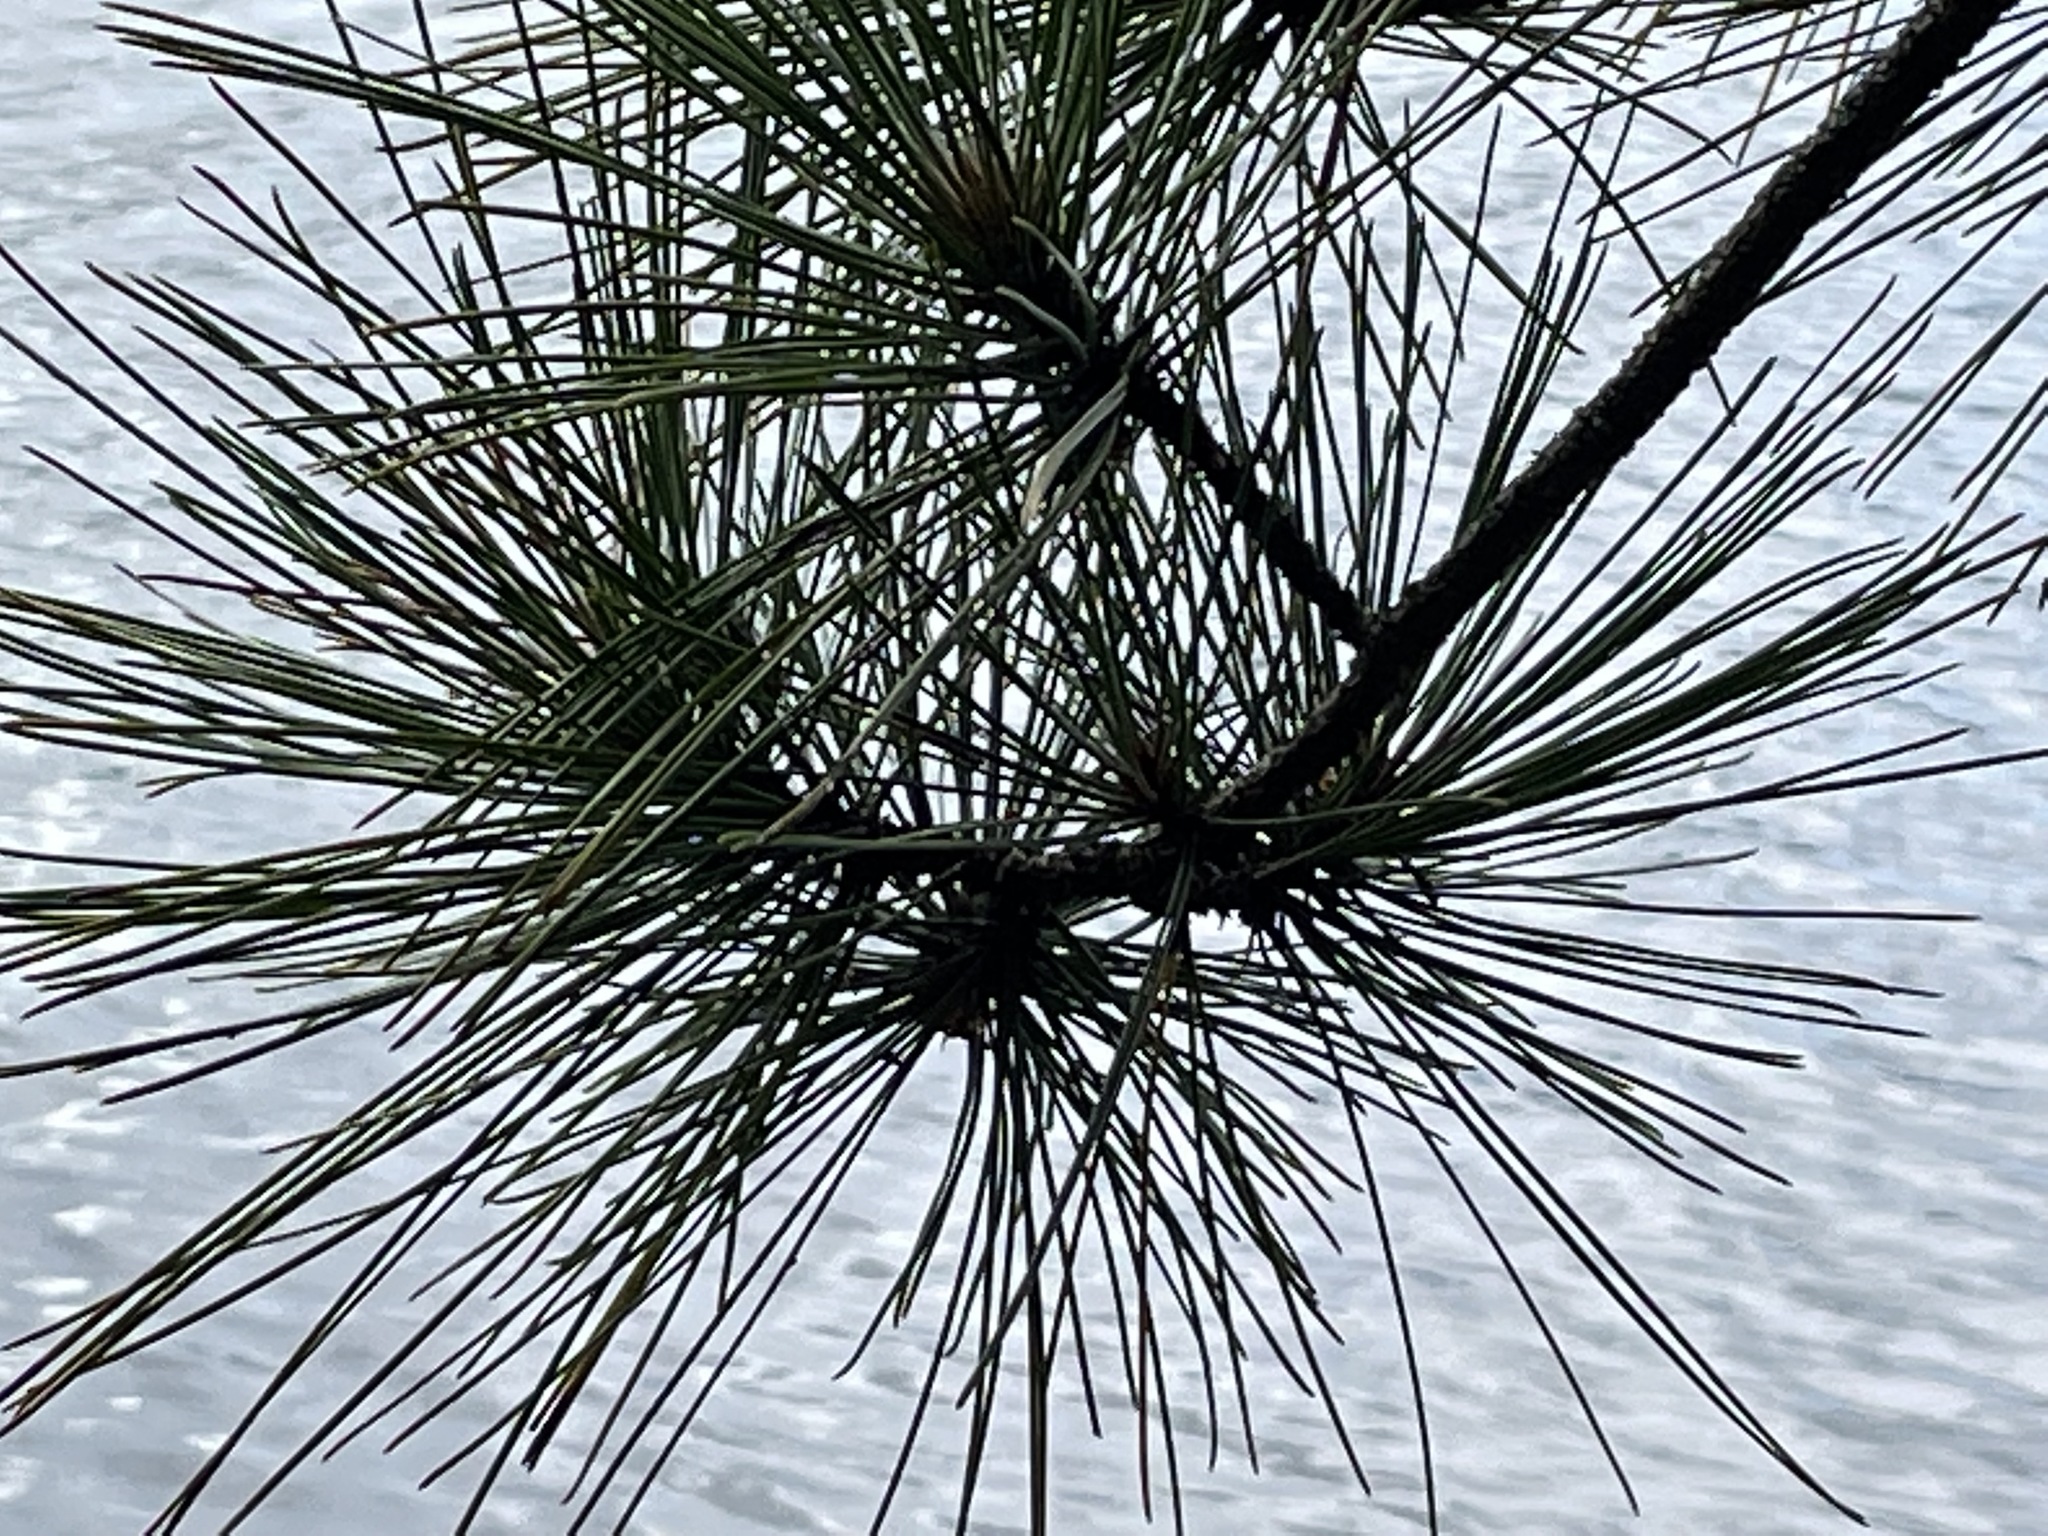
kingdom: Plantae
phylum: Tracheophyta
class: Pinopsida
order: Pinales
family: Pinaceae
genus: Pinus
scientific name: Pinus resinosa
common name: Norway pine
